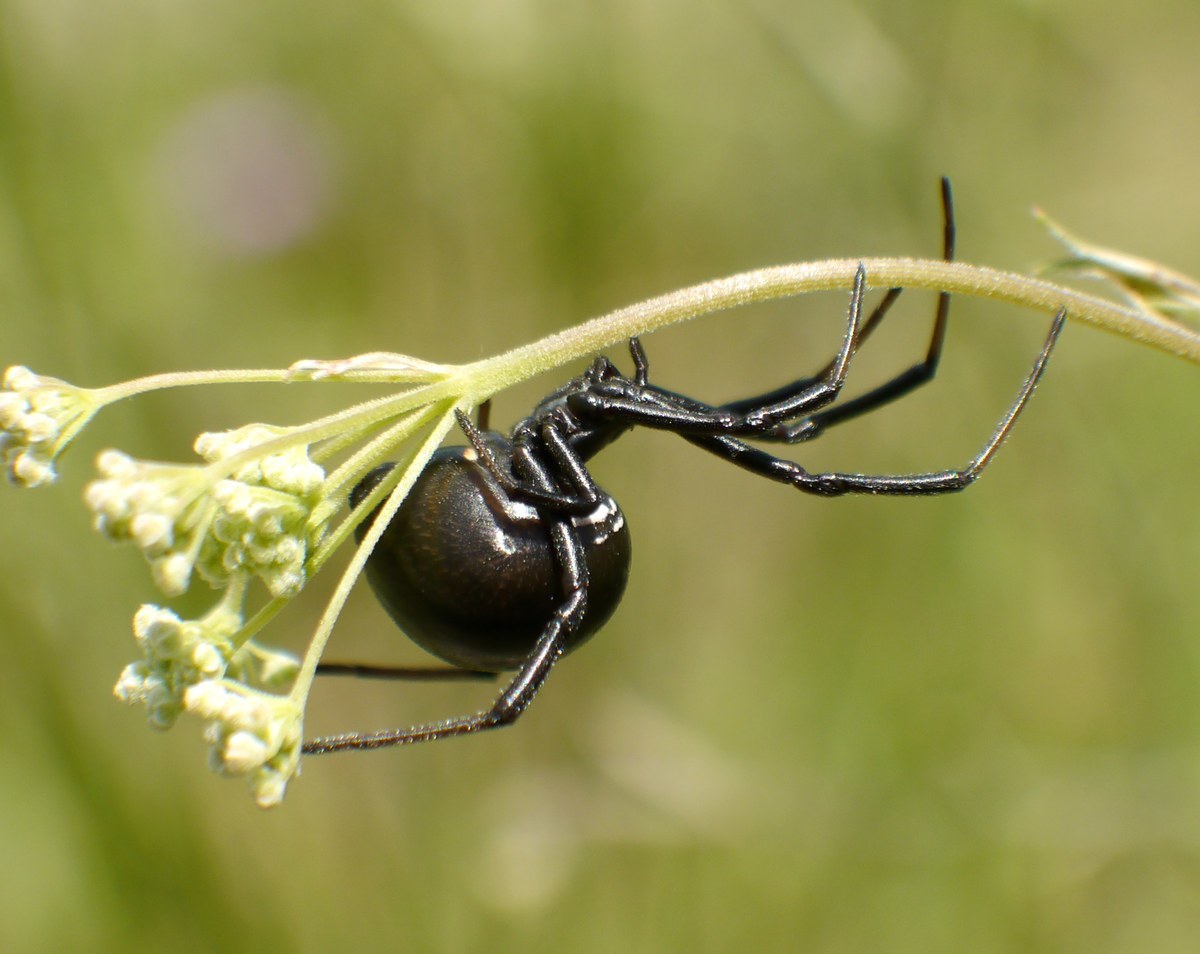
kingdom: Animalia
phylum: Arthropoda
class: Arachnida
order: Araneae
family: Theridiidae
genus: Latrodectus
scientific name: Latrodectus tredecimguttatus
